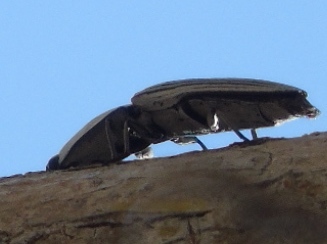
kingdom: Animalia
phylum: Arthropoda
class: Insecta
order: Coleoptera
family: Elateridae
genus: Chalcolepidius
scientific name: Chalcolepidius
